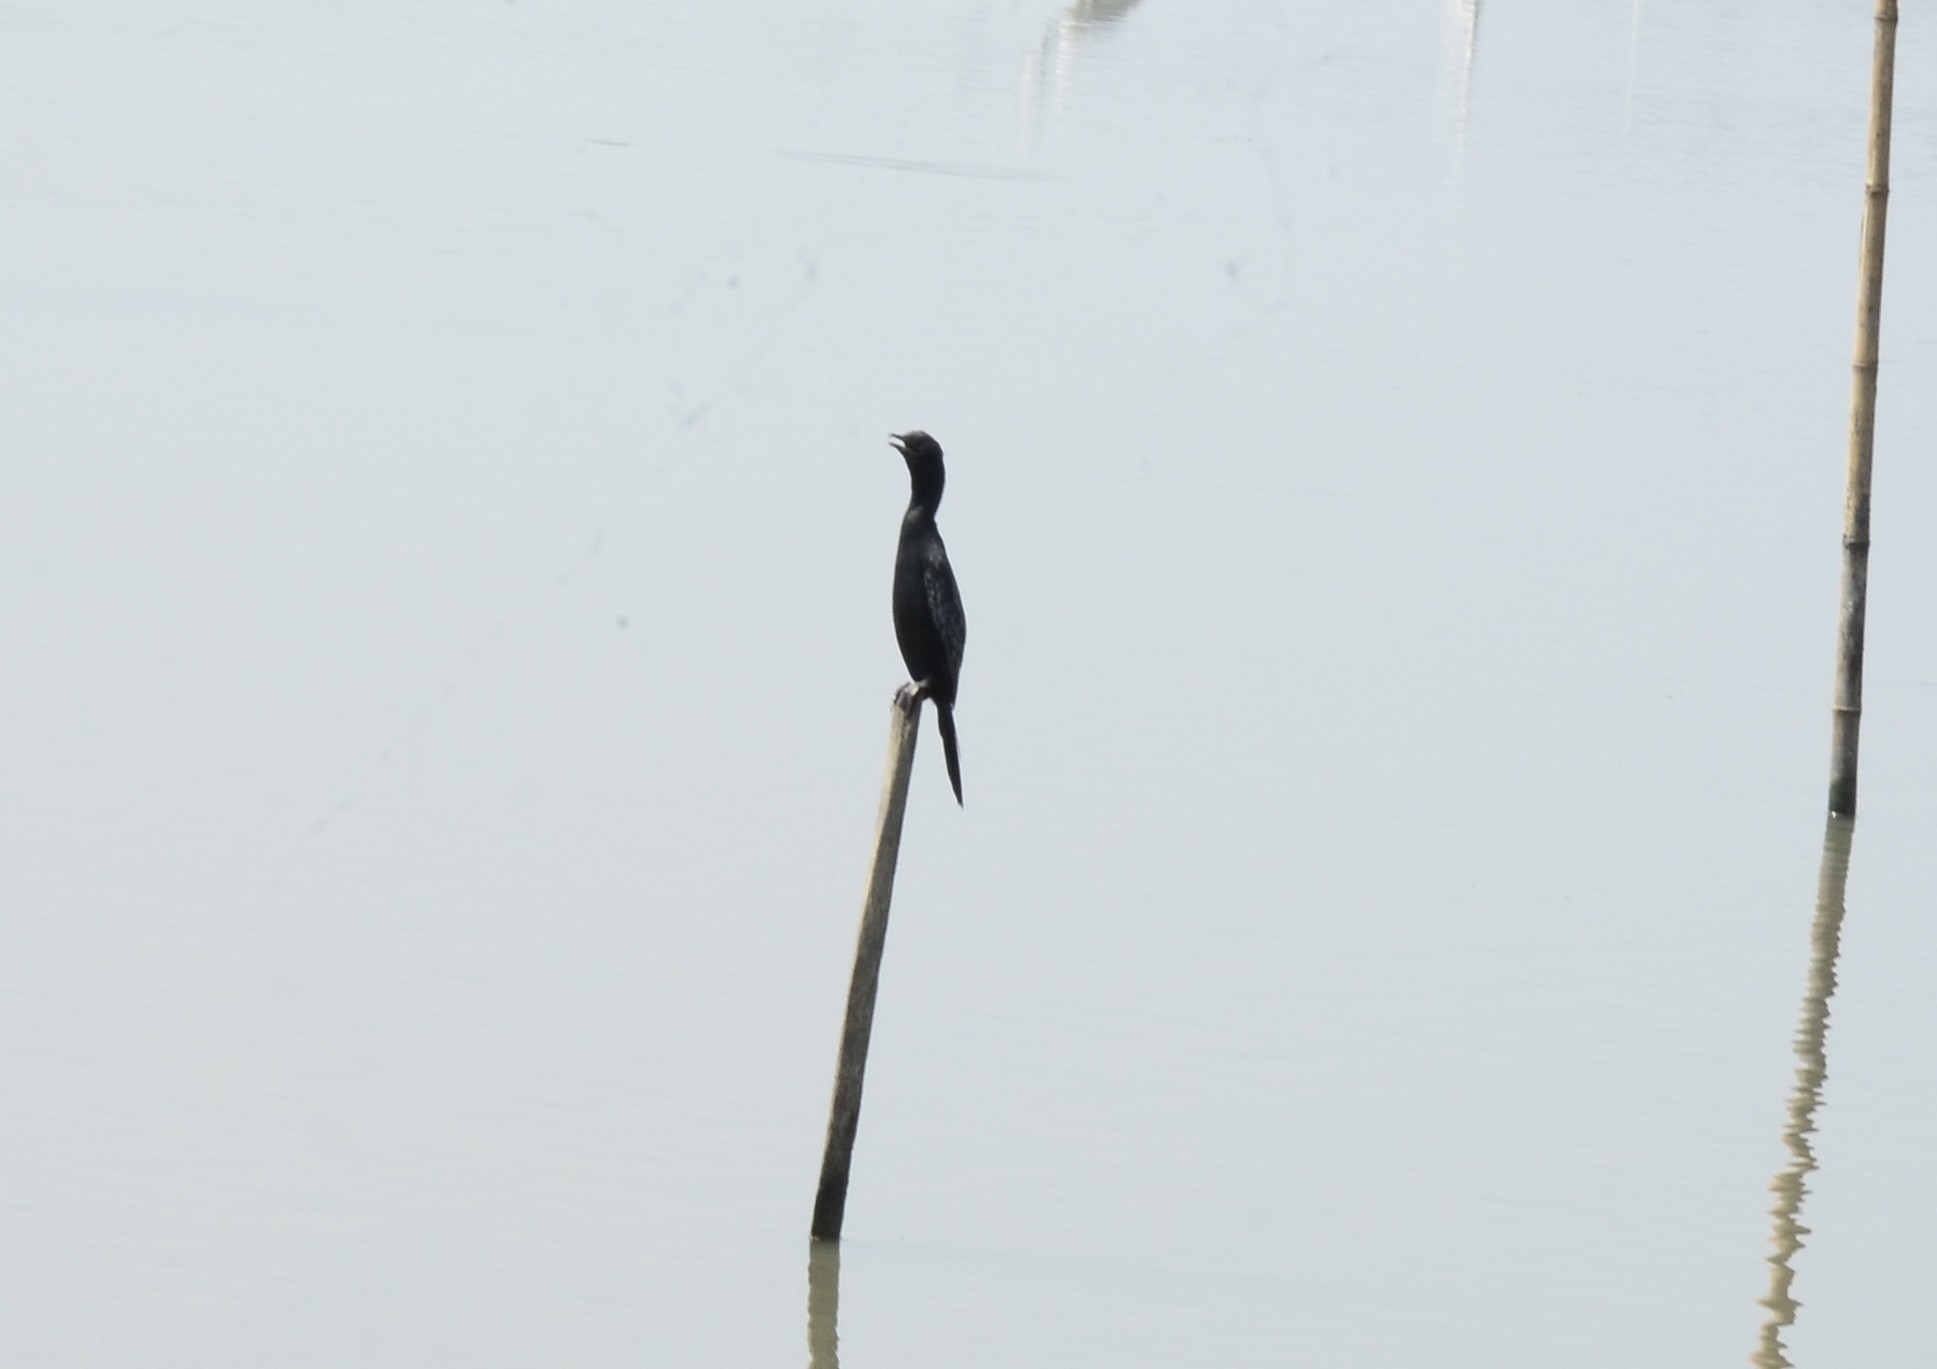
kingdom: Animalia
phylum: Chordata
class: Aves
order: Suliformes
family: Phalacrocoracidae
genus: Microcarbo
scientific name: Microcarbo niger
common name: Little cormorant
